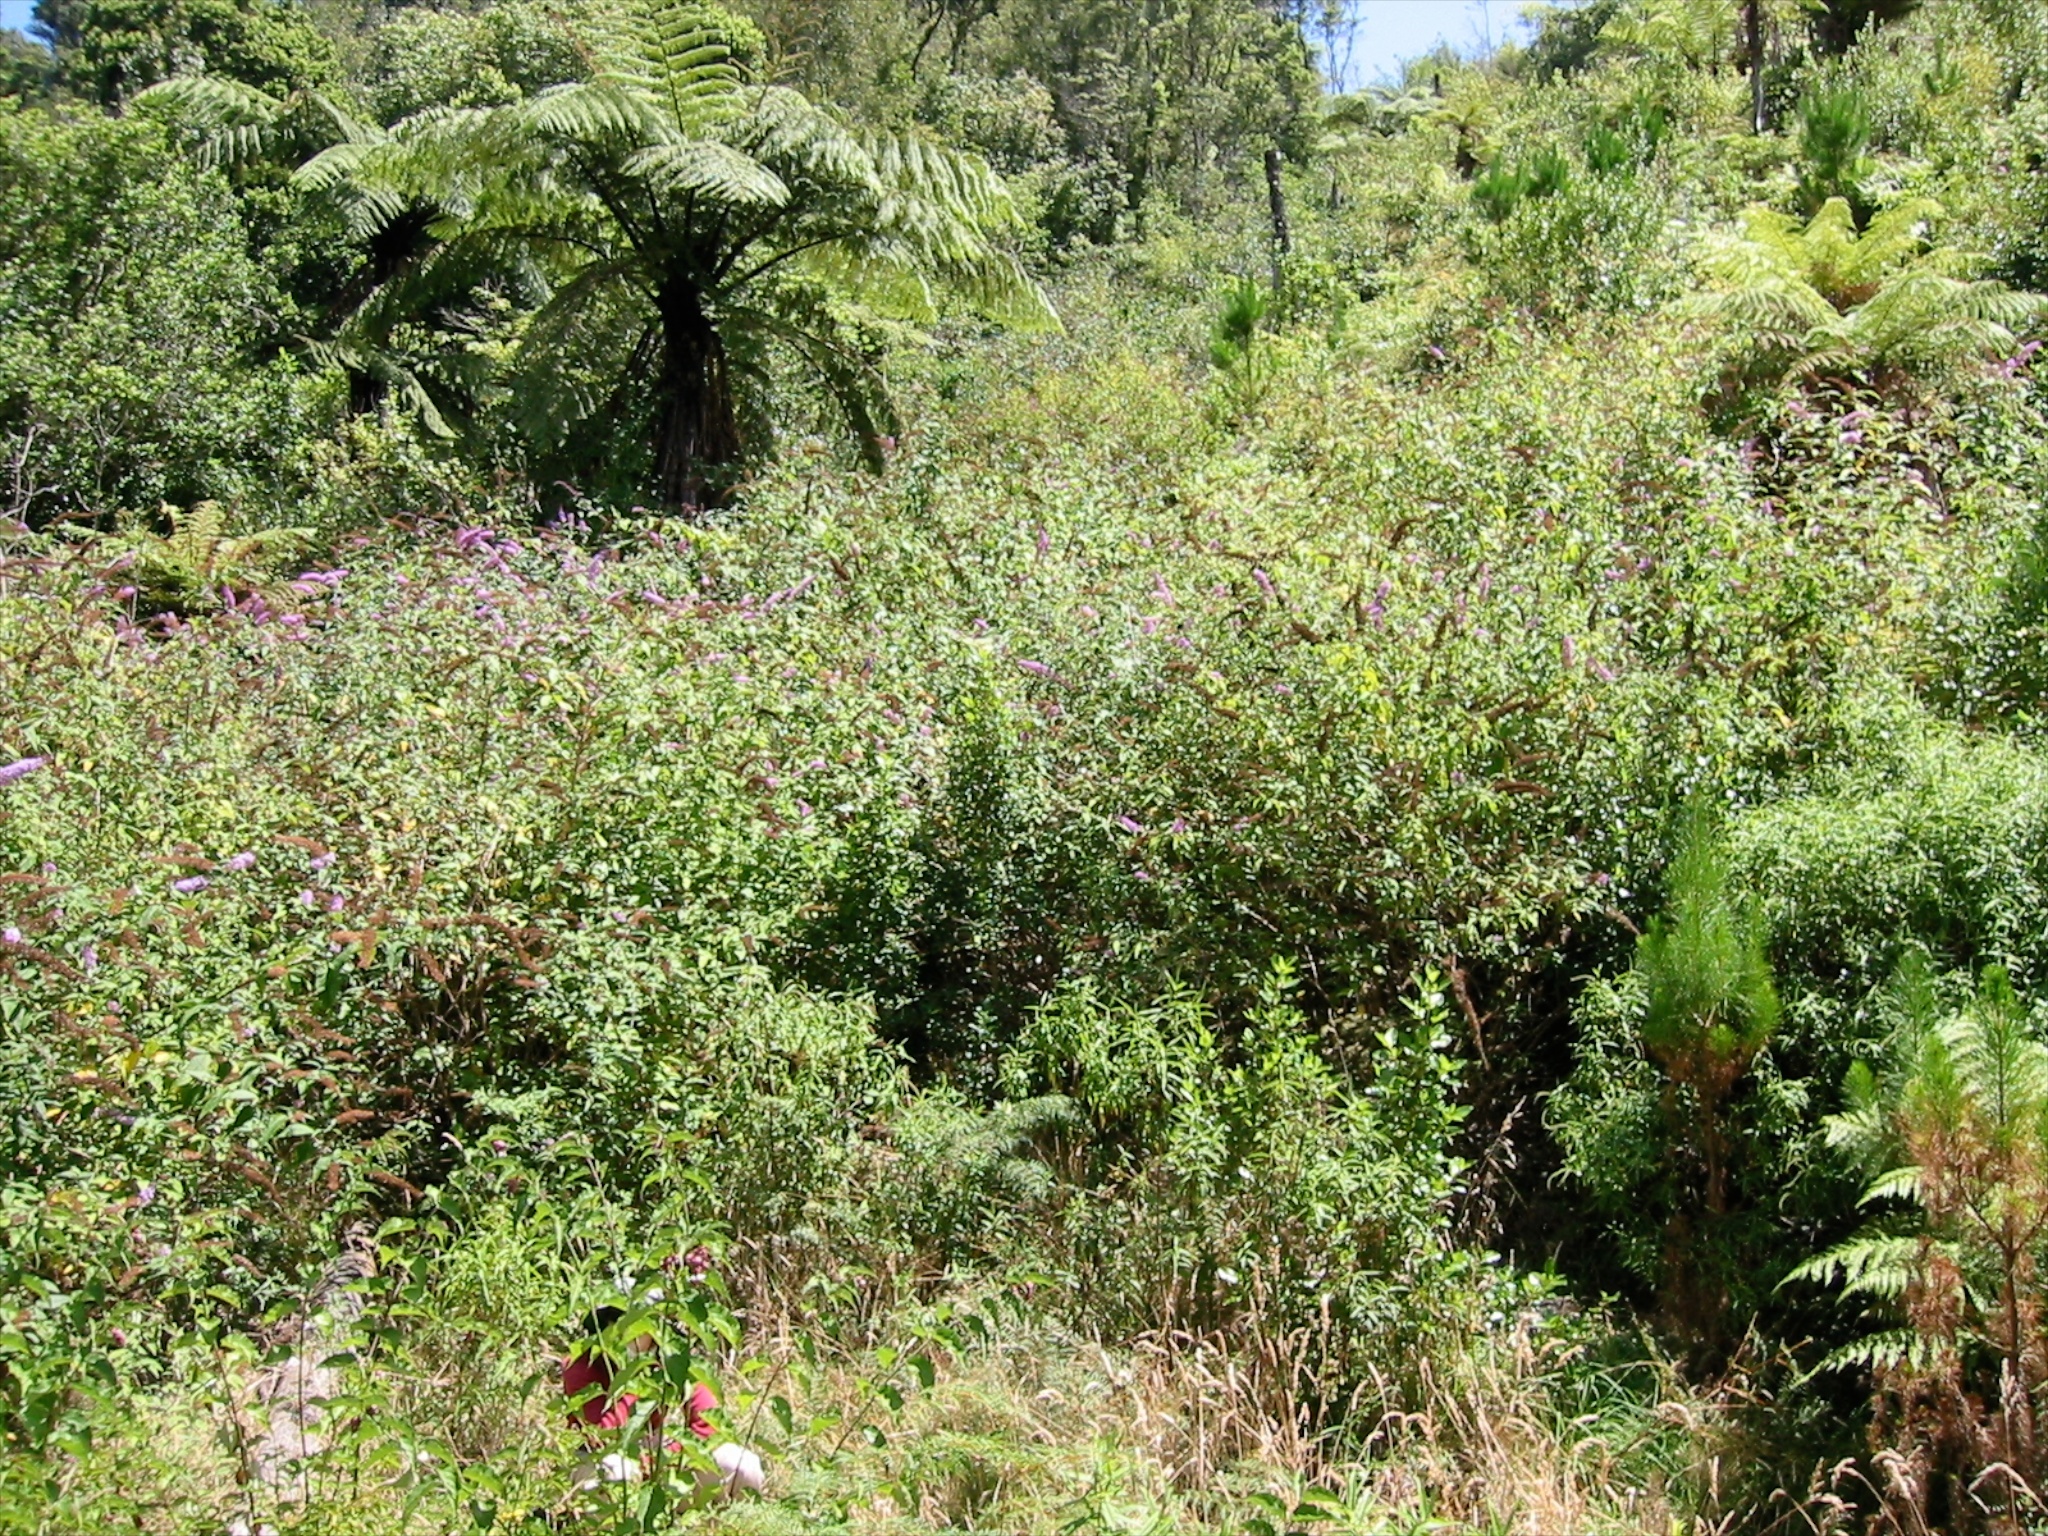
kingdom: Plantae
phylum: Tracheophyta
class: Magnoliopsida
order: Lamiales
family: Scrophulariaceae
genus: Buddleja
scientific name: Buddleja davidii
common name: Butterfly-bush
